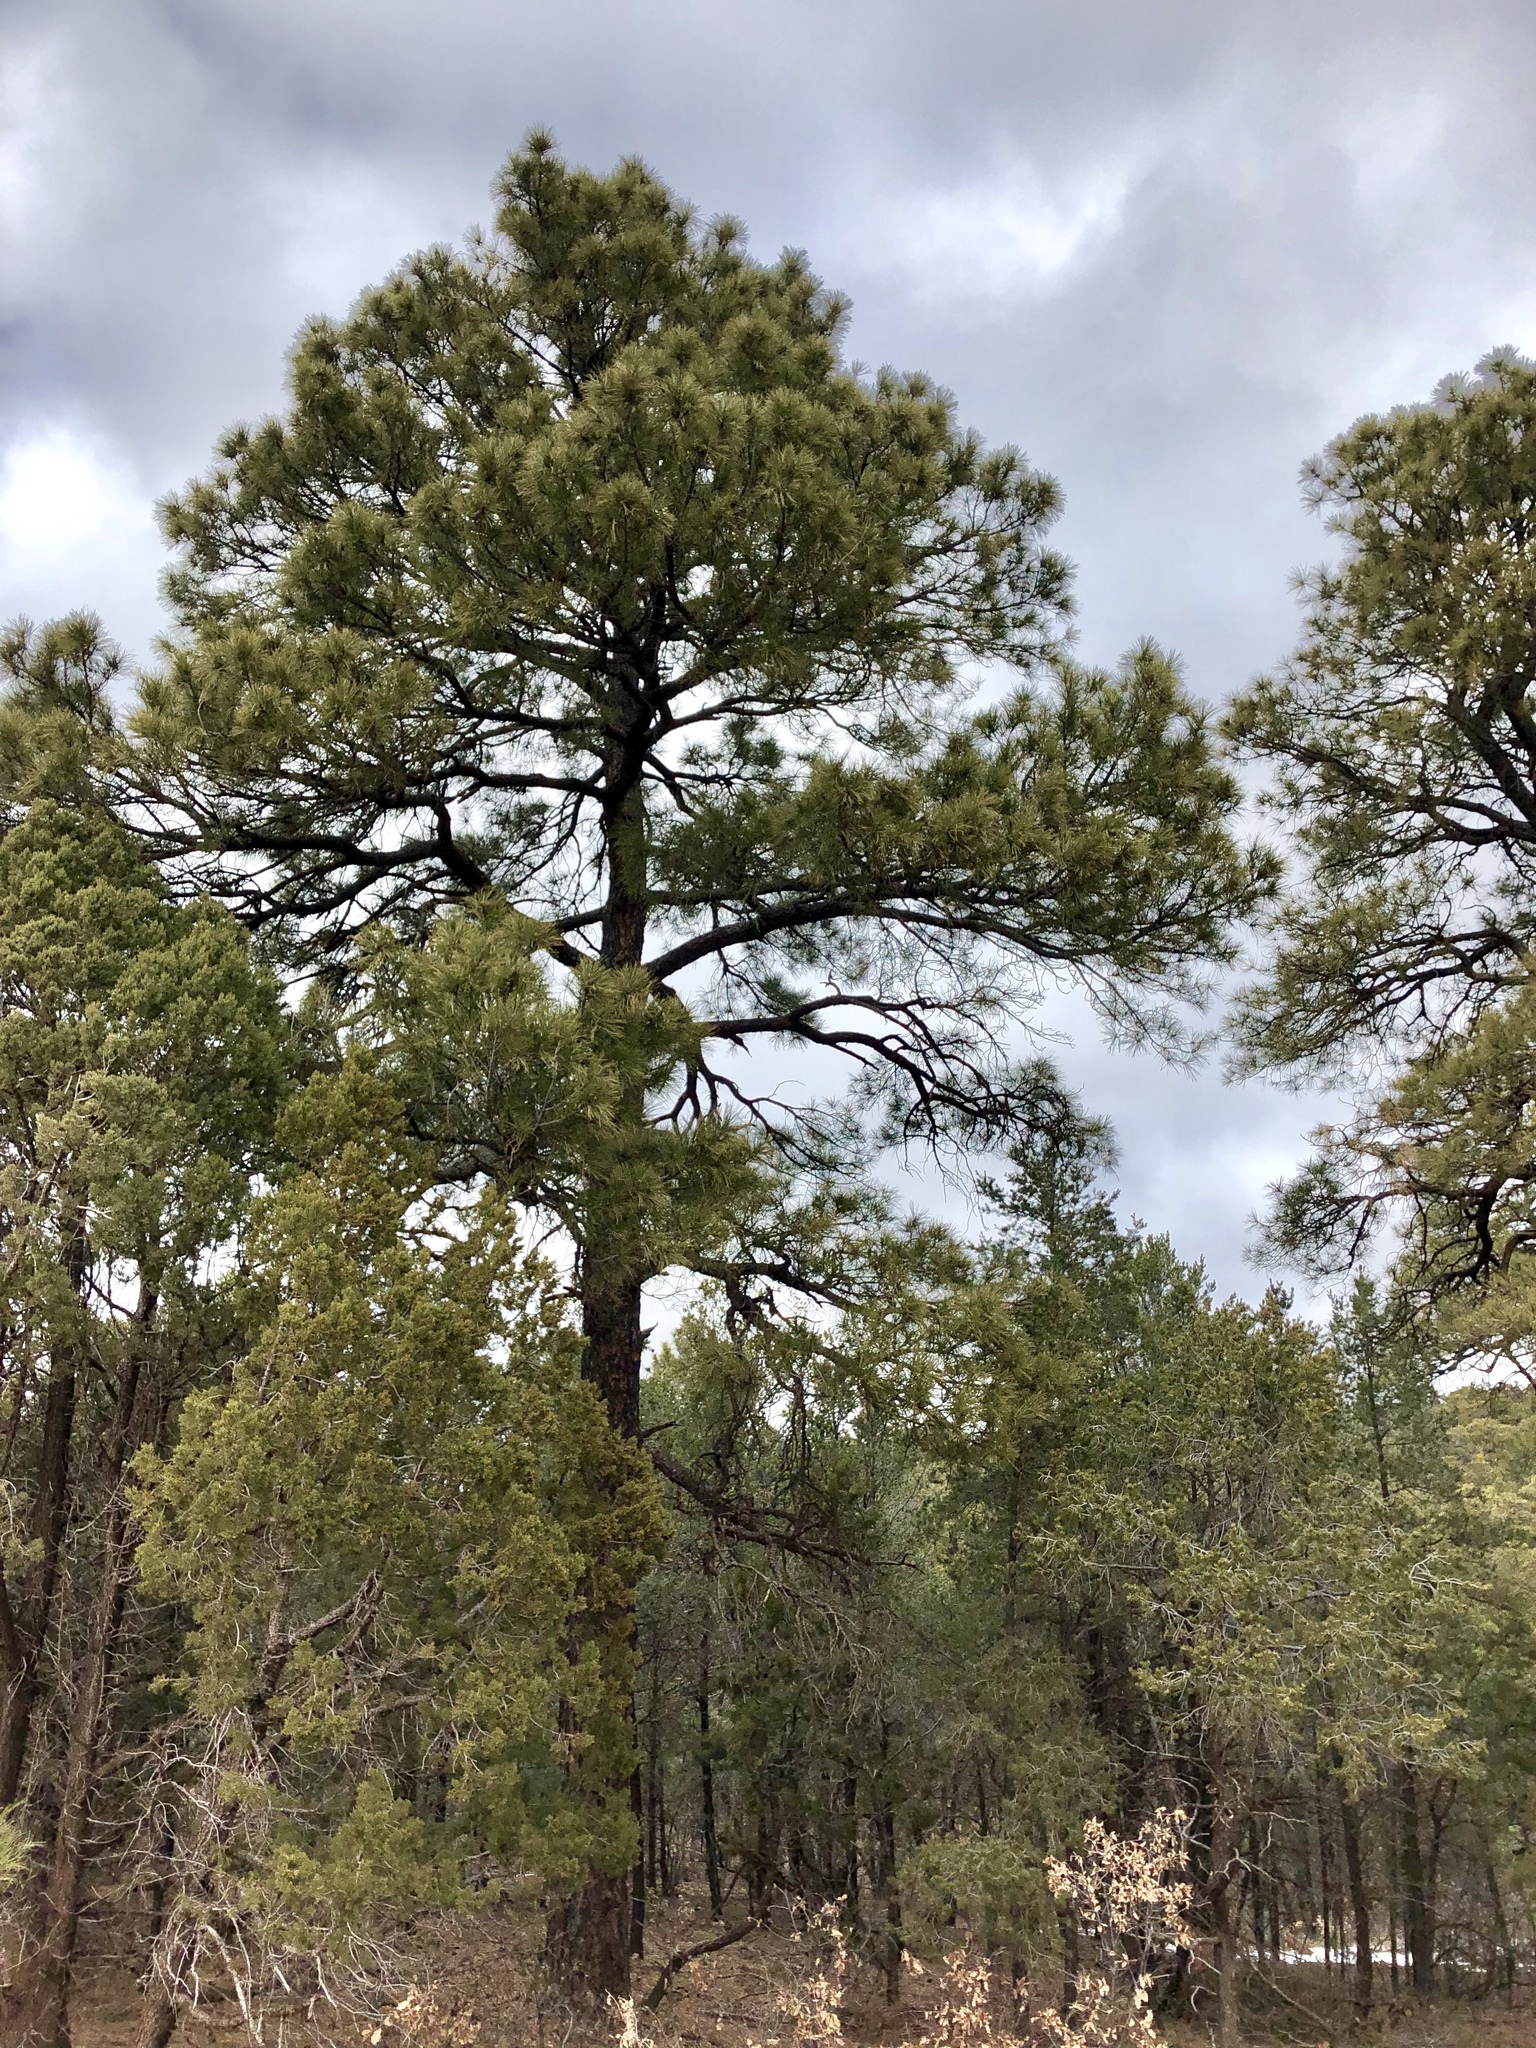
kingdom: Plantae
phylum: Tracheophyta
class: Pinopsida
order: Pinales
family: Pinaceae
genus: Pinus
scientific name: Pinus ponderosa
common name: Western yellow-pine
